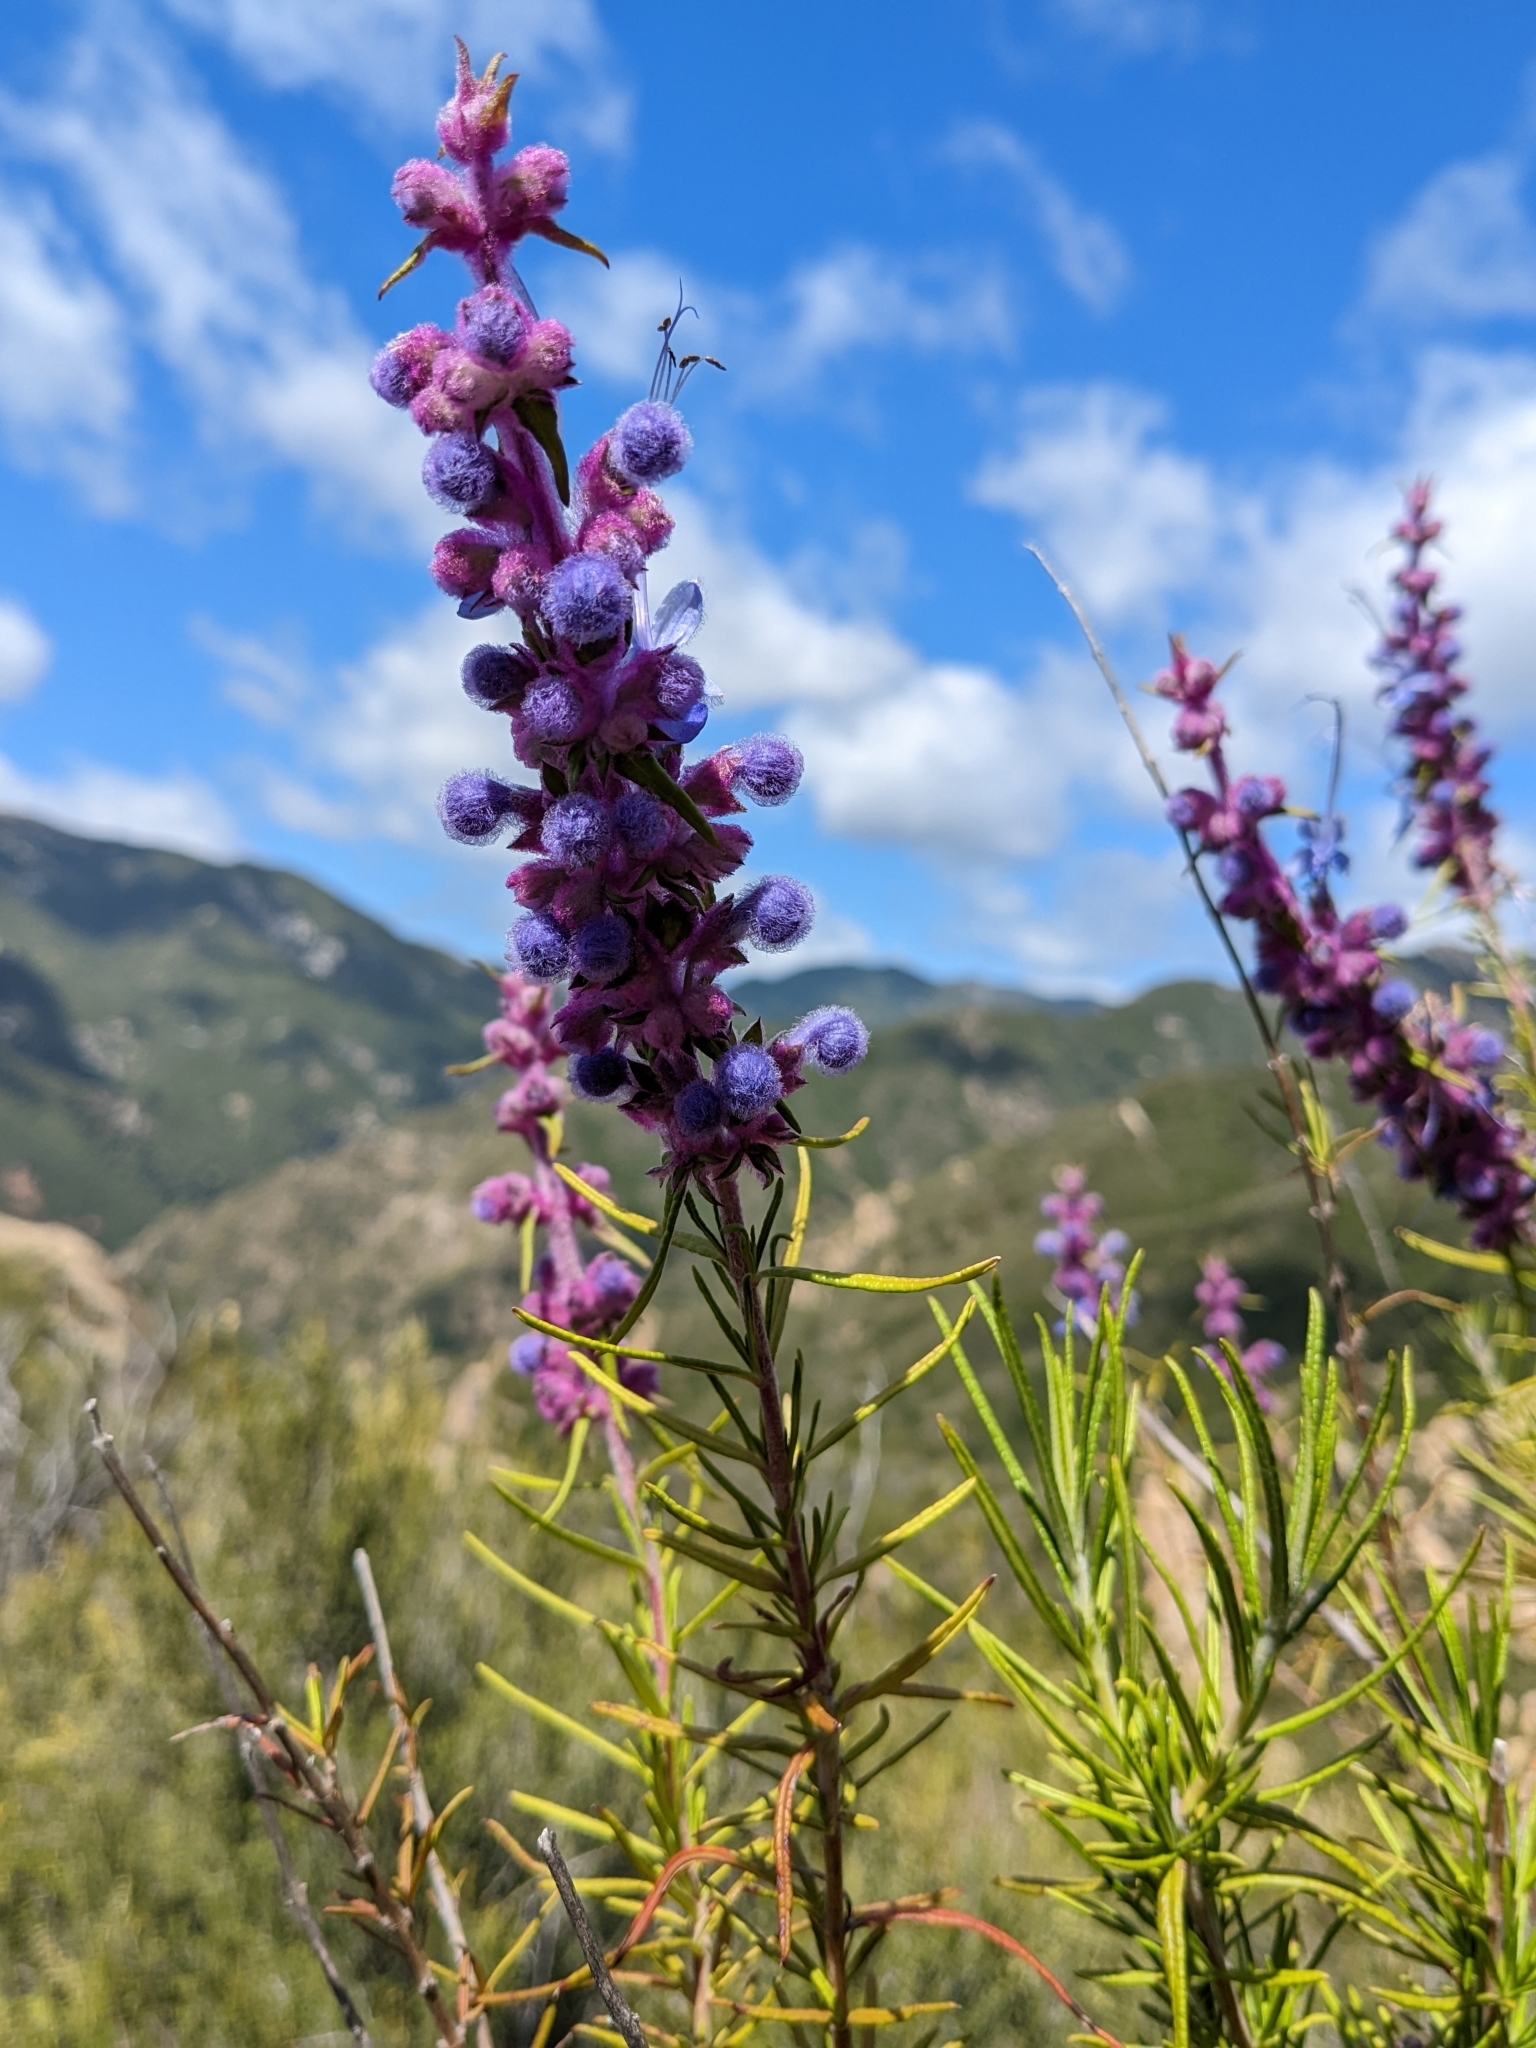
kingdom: Plantae
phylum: Tracheophyta
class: Magnoliopsida
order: Lamiales
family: Lamiaceae
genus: Trichostema
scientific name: Trichostema lanatum
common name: Woolly bluecurls
